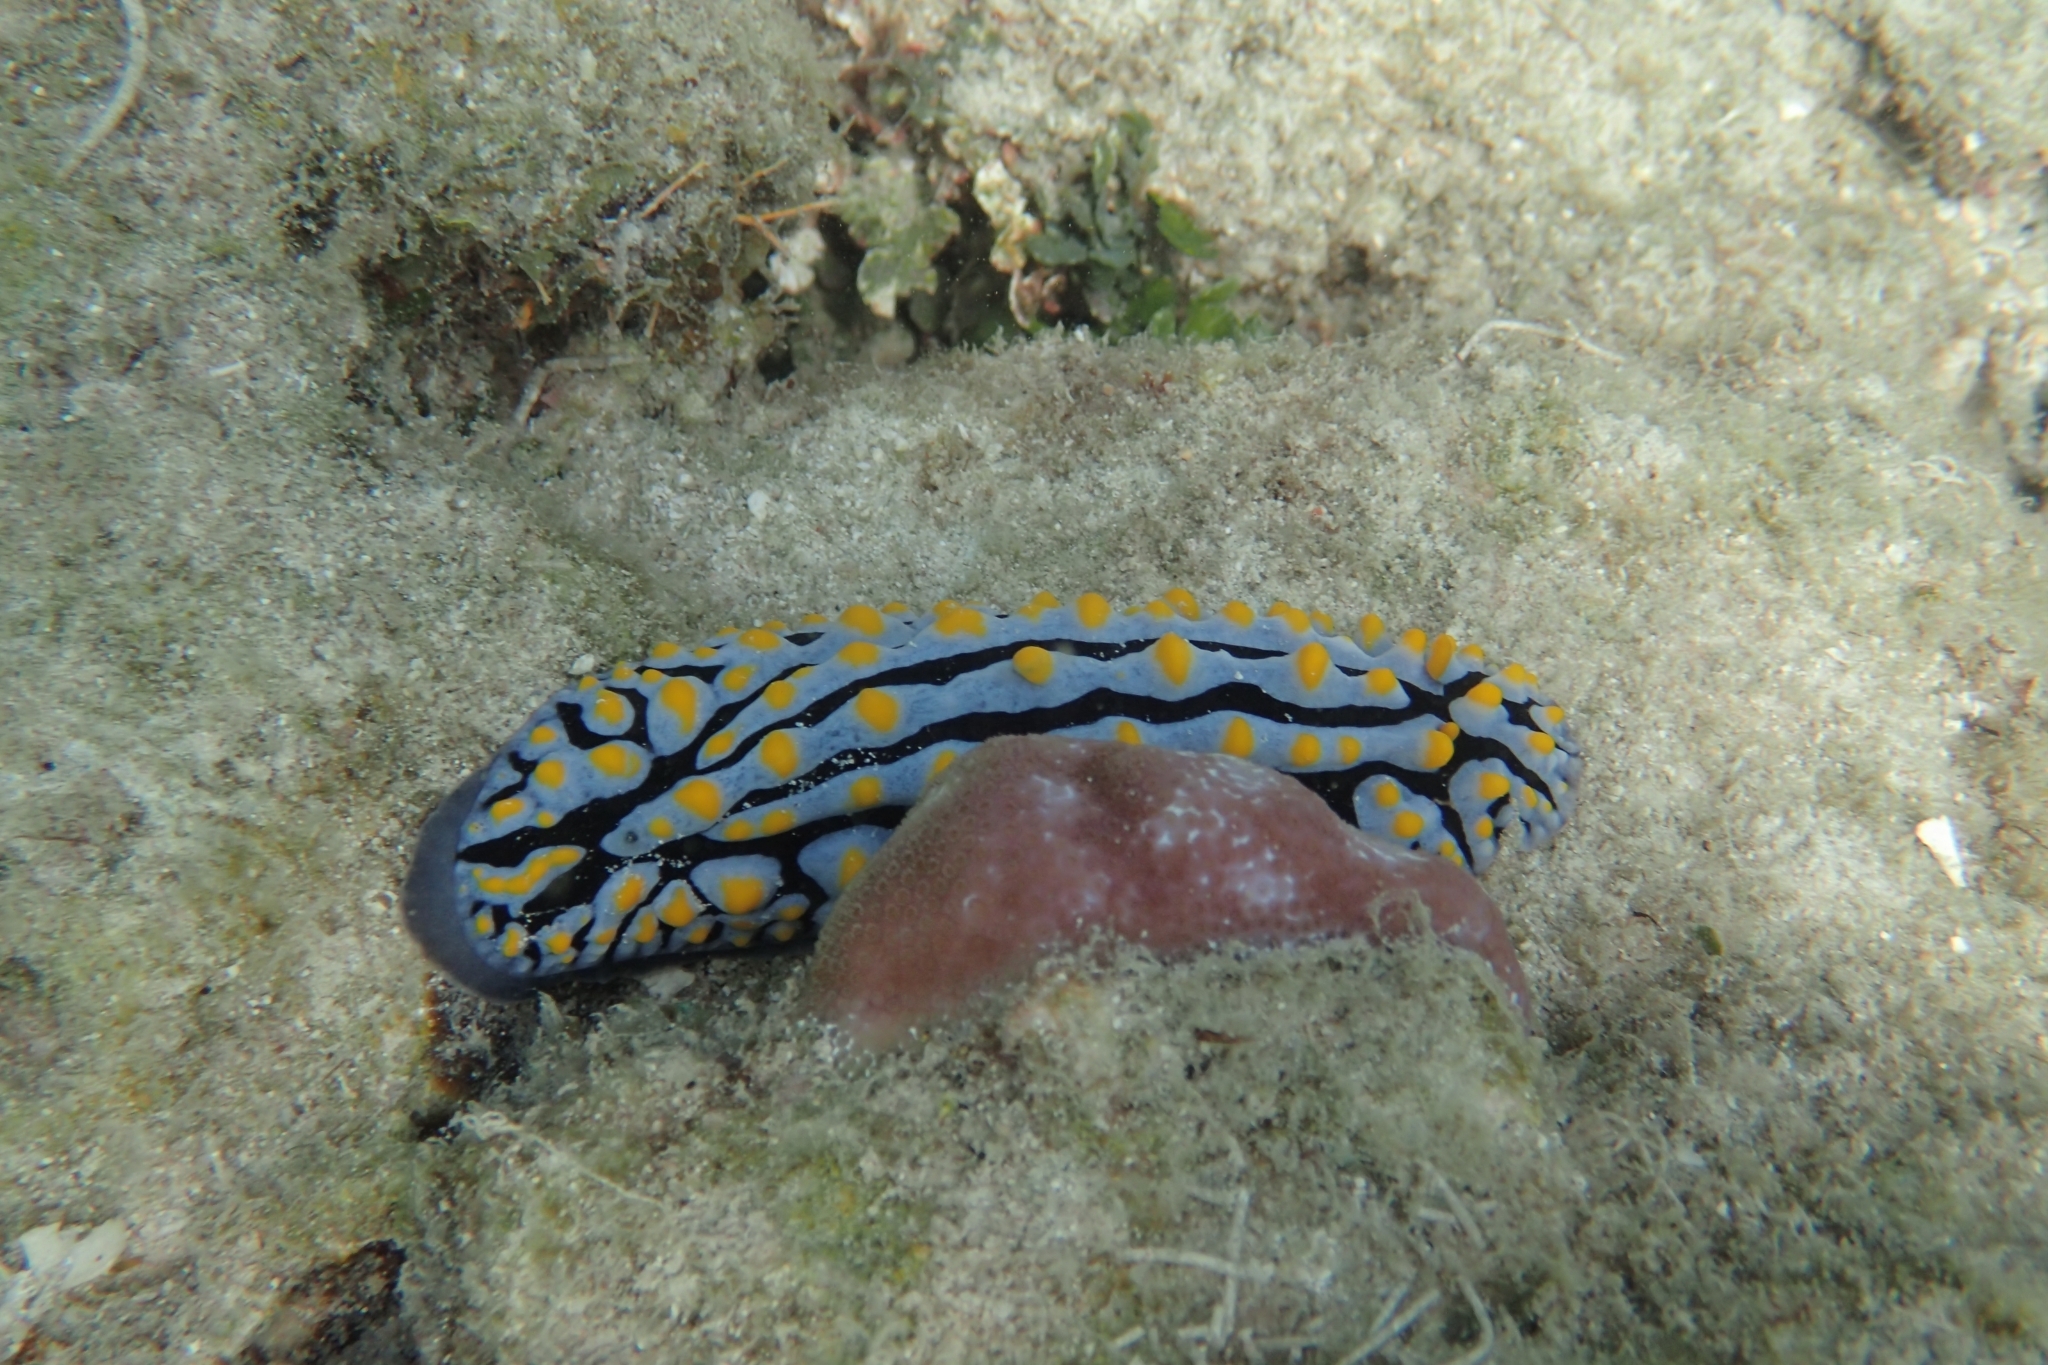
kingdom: Animalia
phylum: Mollusca
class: Gastropoda
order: Nudibranchia
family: Phyllidiidae
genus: Phyllidia
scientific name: Phyllidia varicosa
